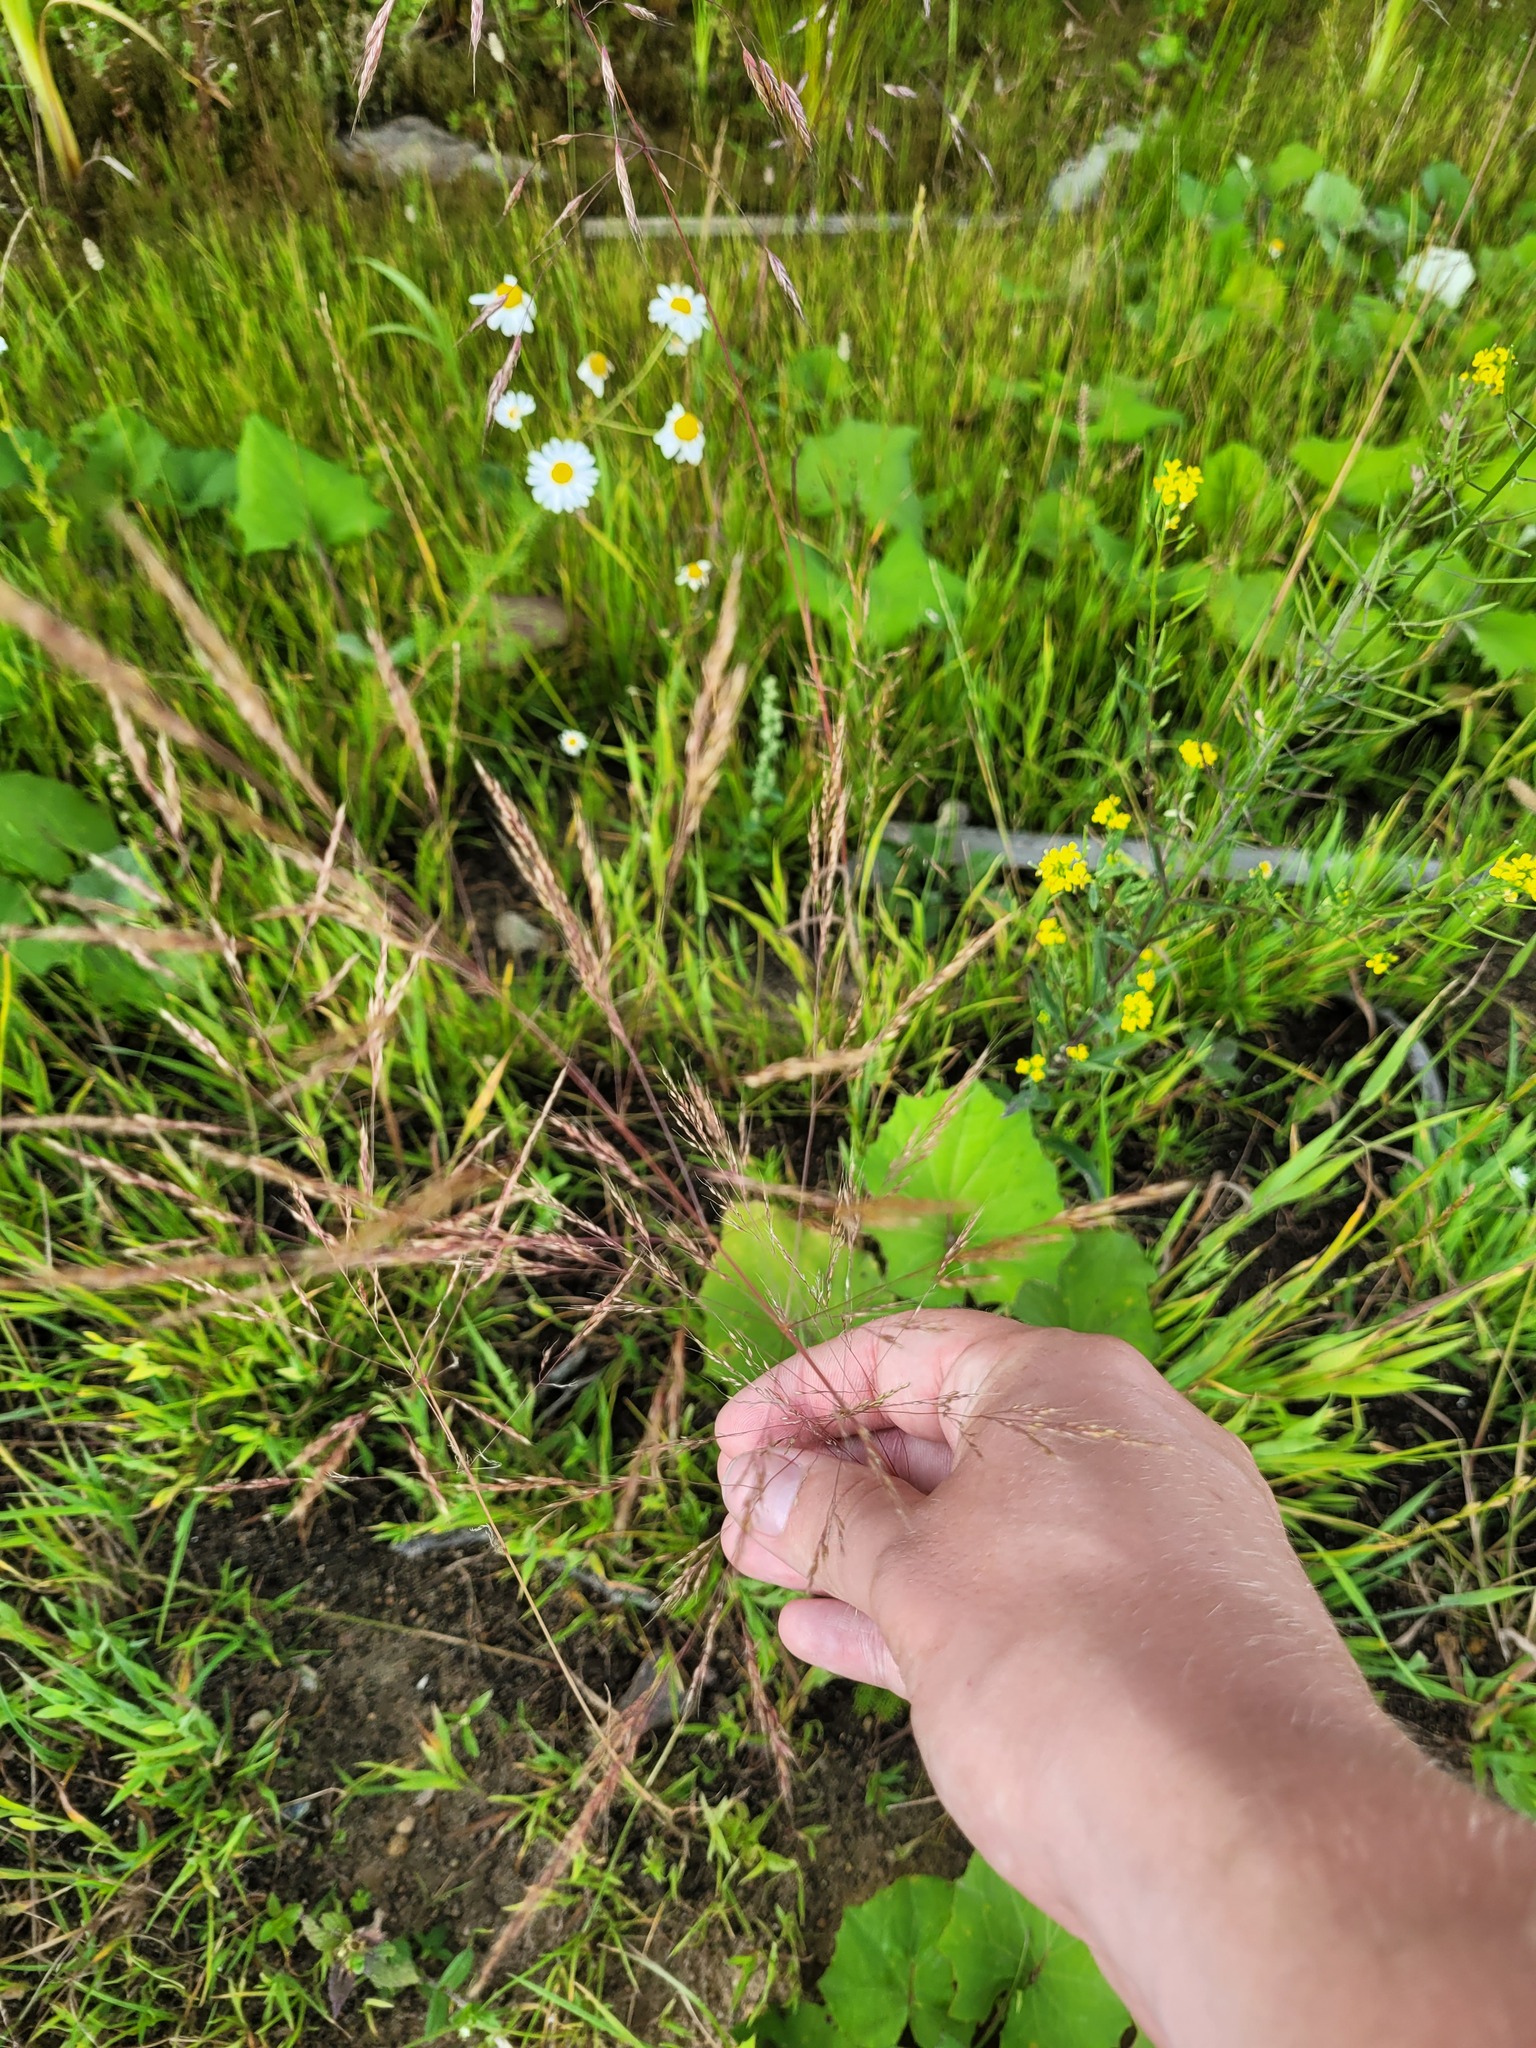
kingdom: Plantae
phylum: Tracheophyta
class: Liliopsida
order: Poales
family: Poaceae
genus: Apera
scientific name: Apera spica-venti
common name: Loose silky-bent
